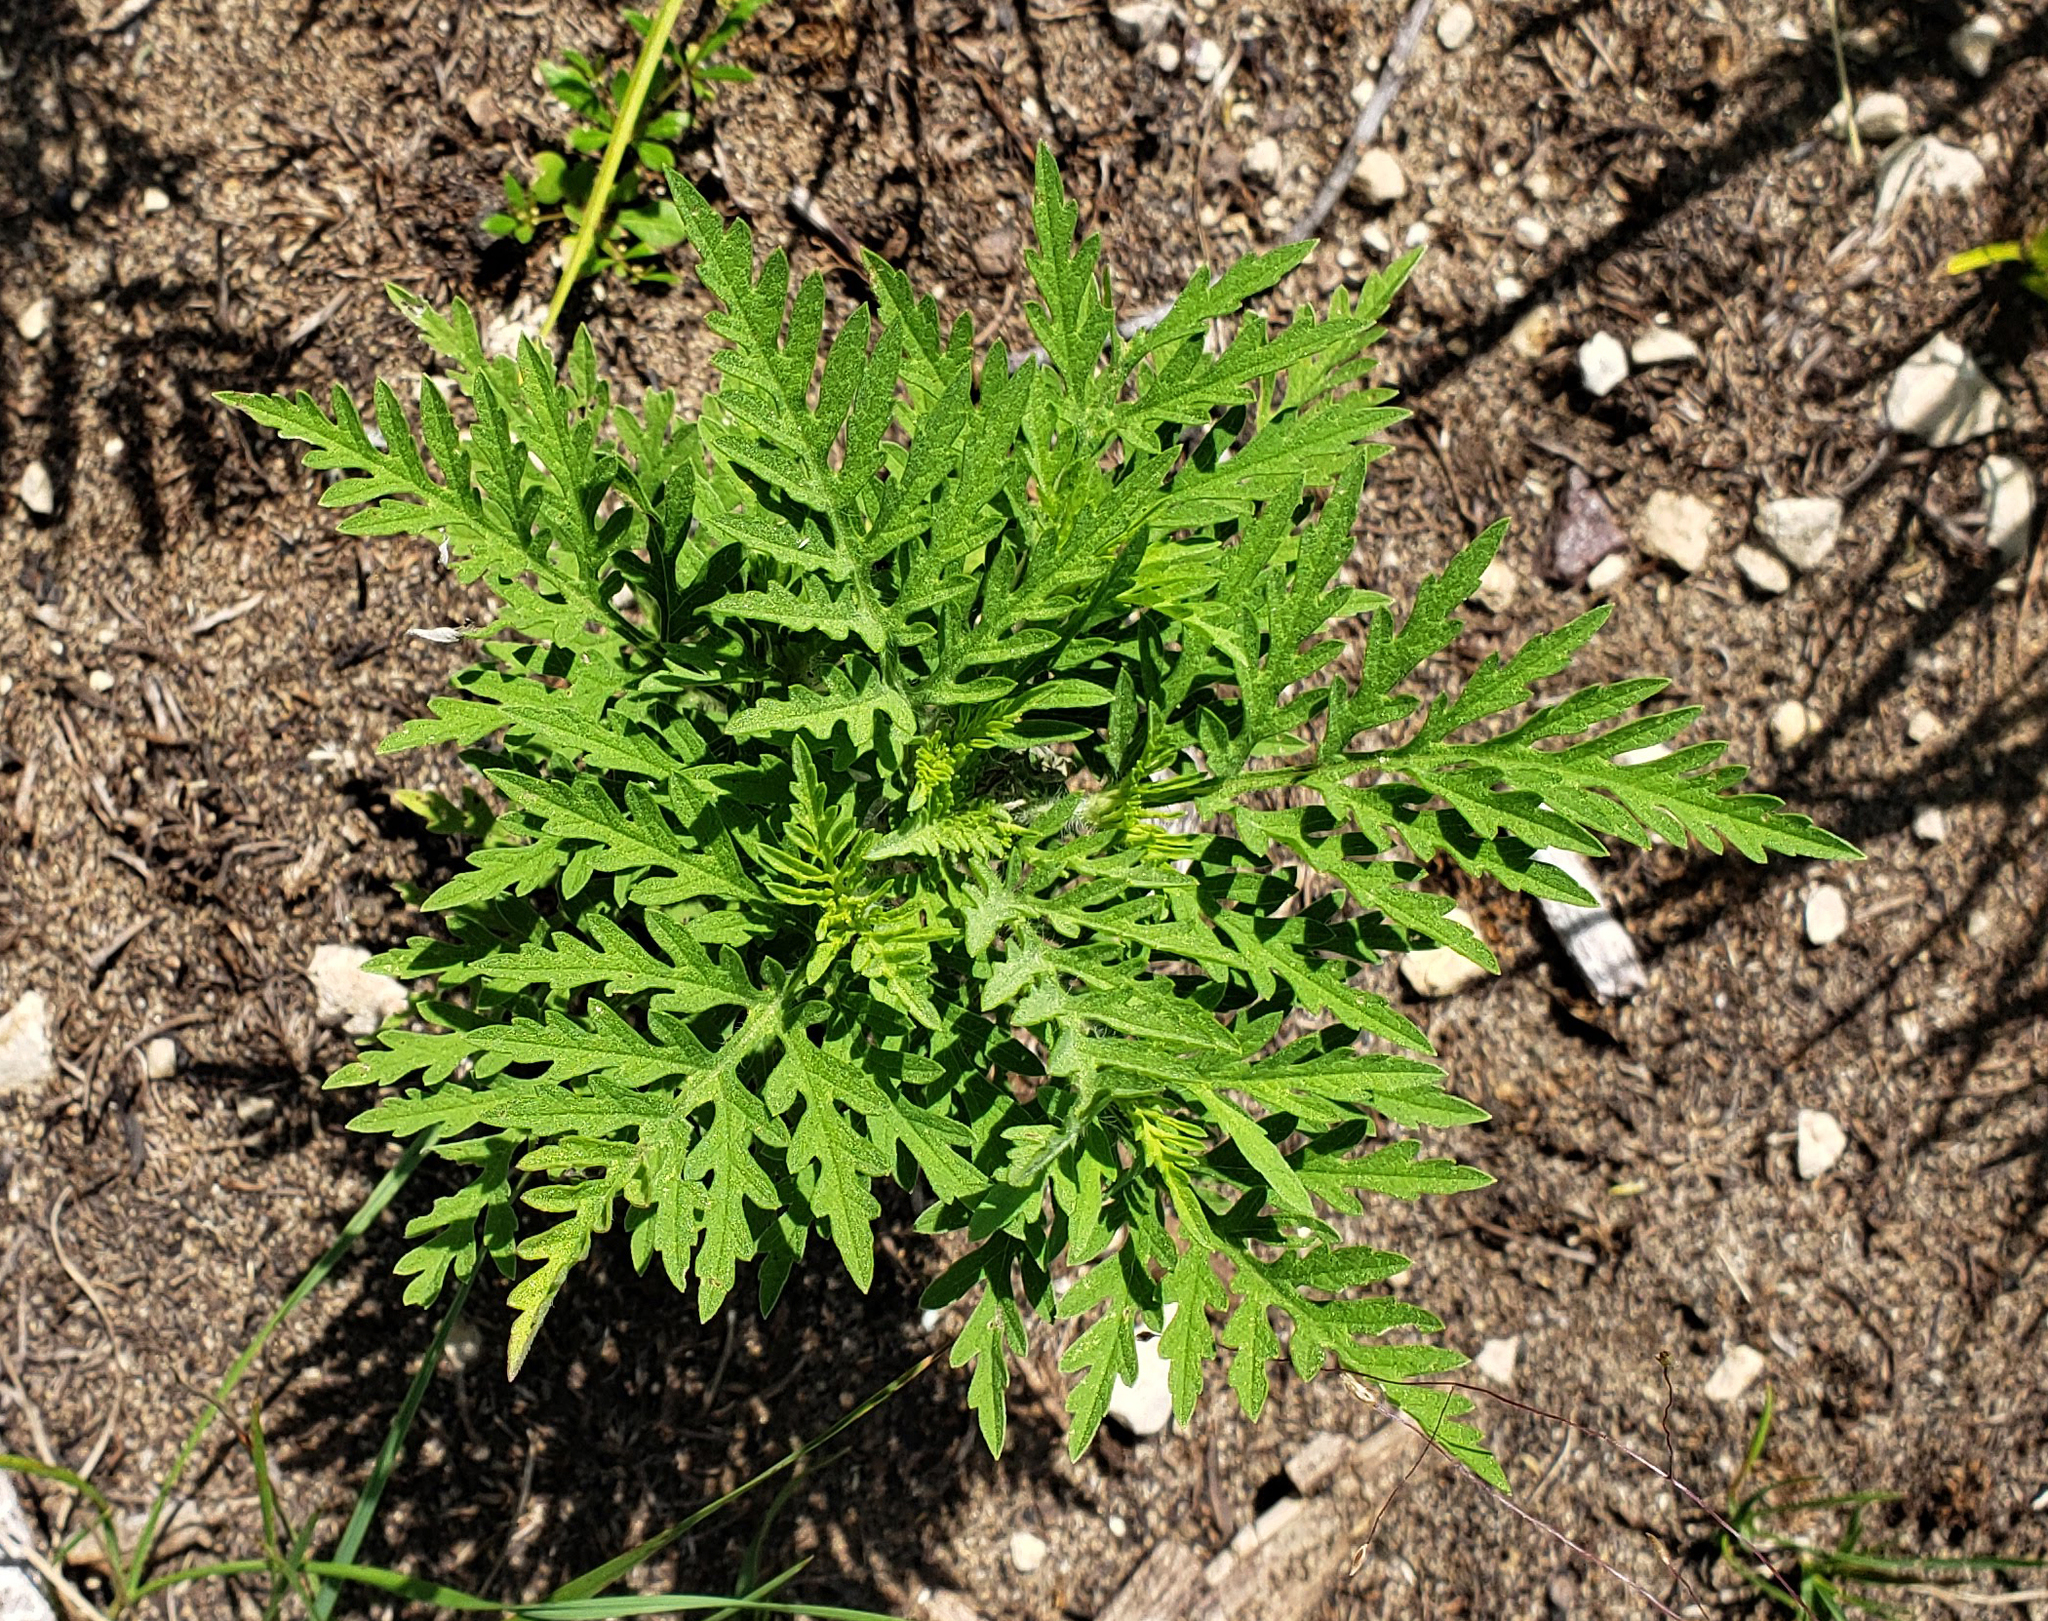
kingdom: Plantae
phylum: Tracheophyta
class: Magnoliopsida
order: Asterales
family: Asteraceae
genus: Ambrosia
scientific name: Ambrosia artemisiifolia
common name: Annual ragweed
